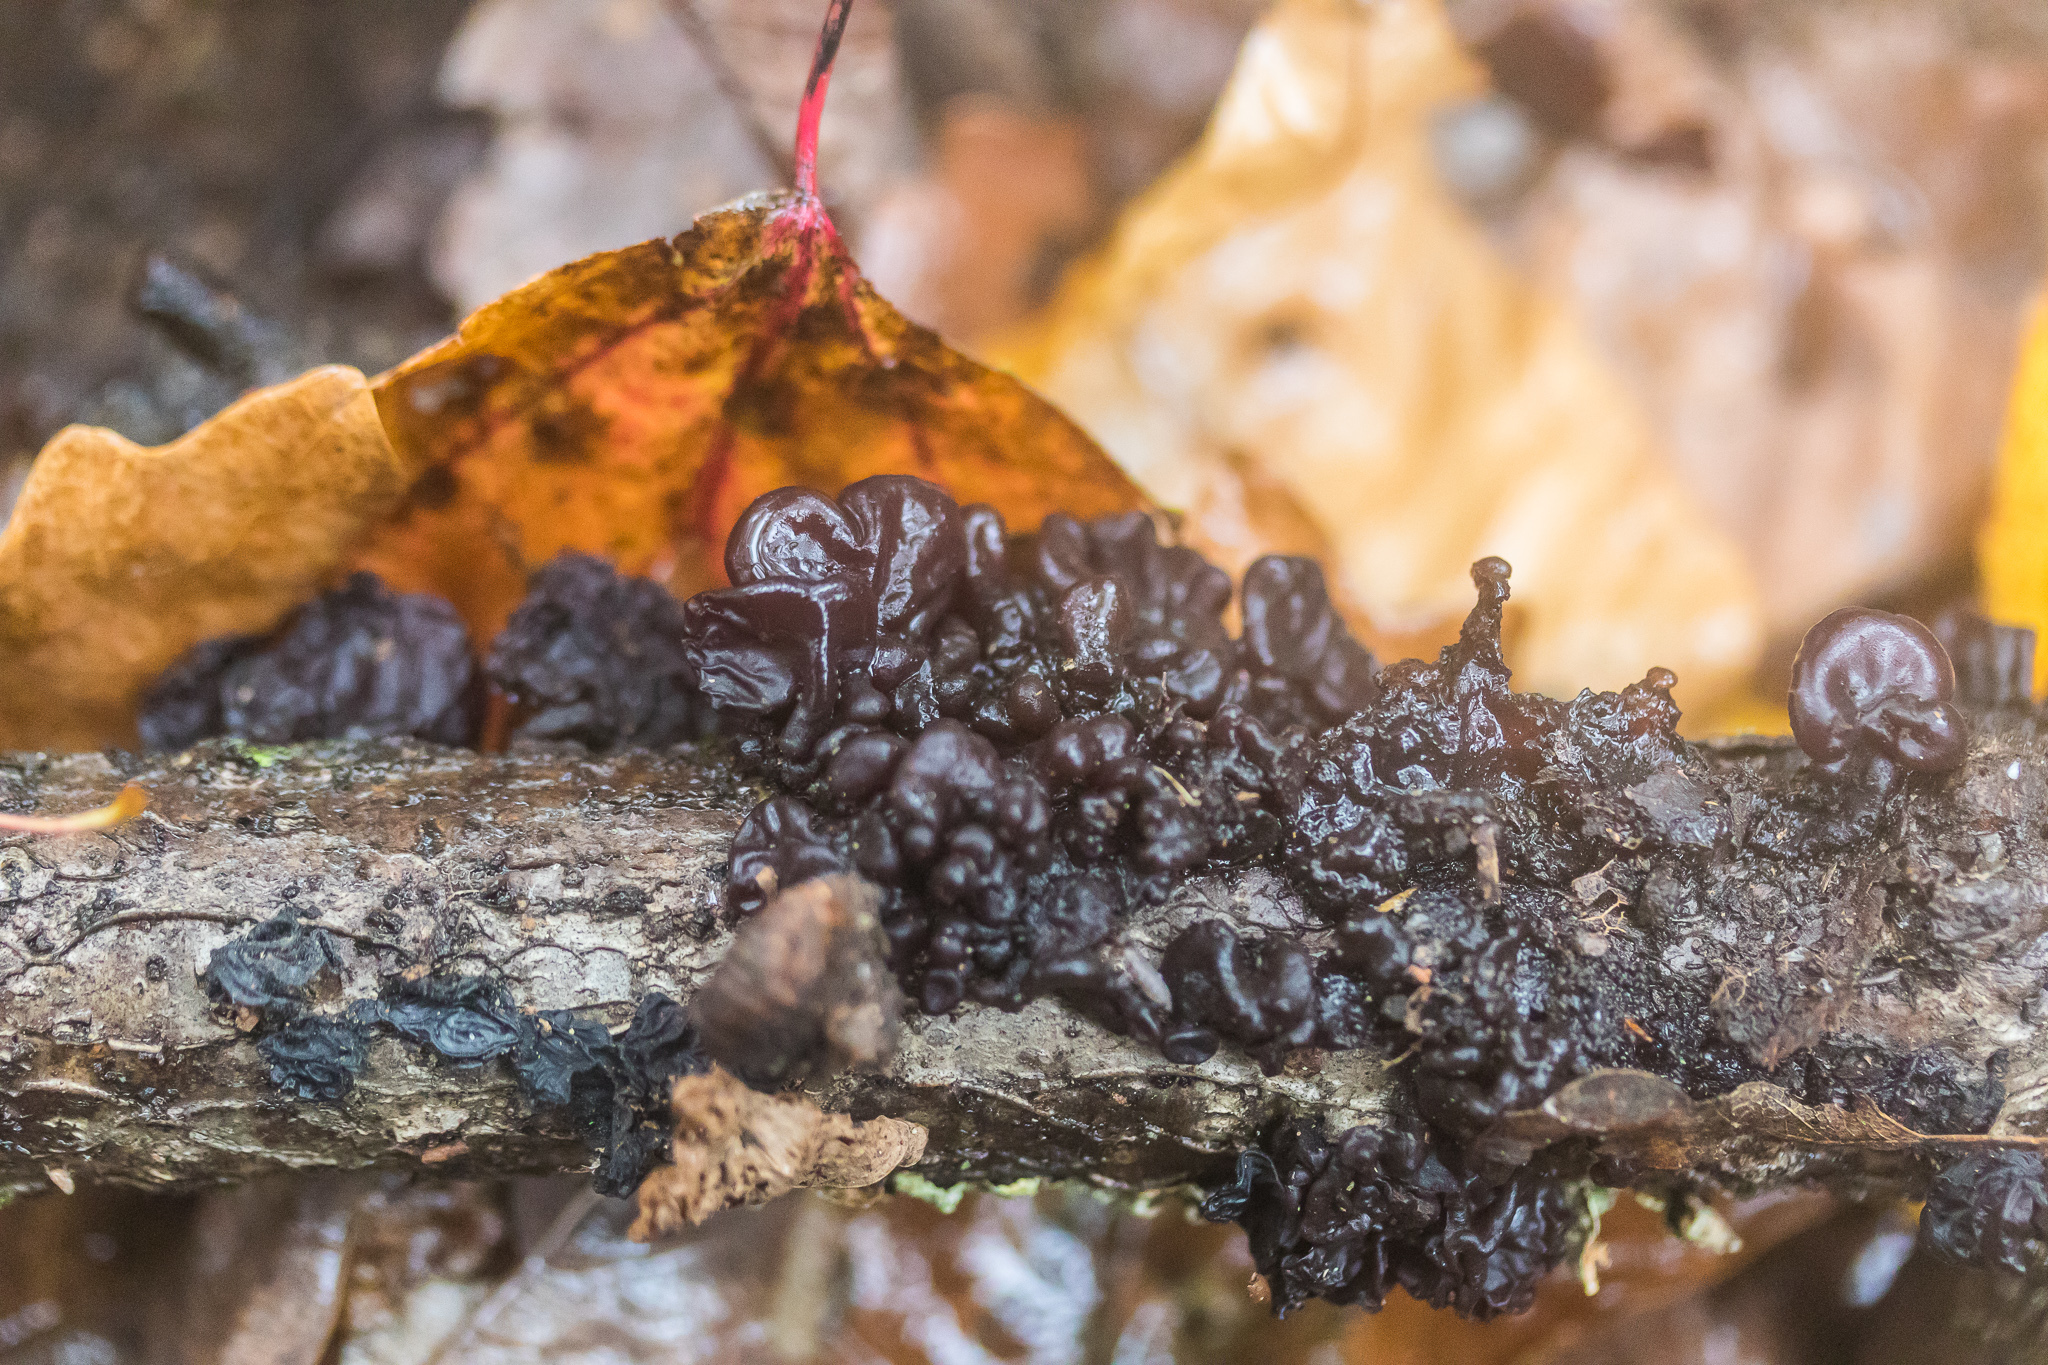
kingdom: Fungi
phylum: Basidiomycota
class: Agaricomycetes
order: Auriculariales
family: Auriculariaceae
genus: Exidia
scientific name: Exidia
